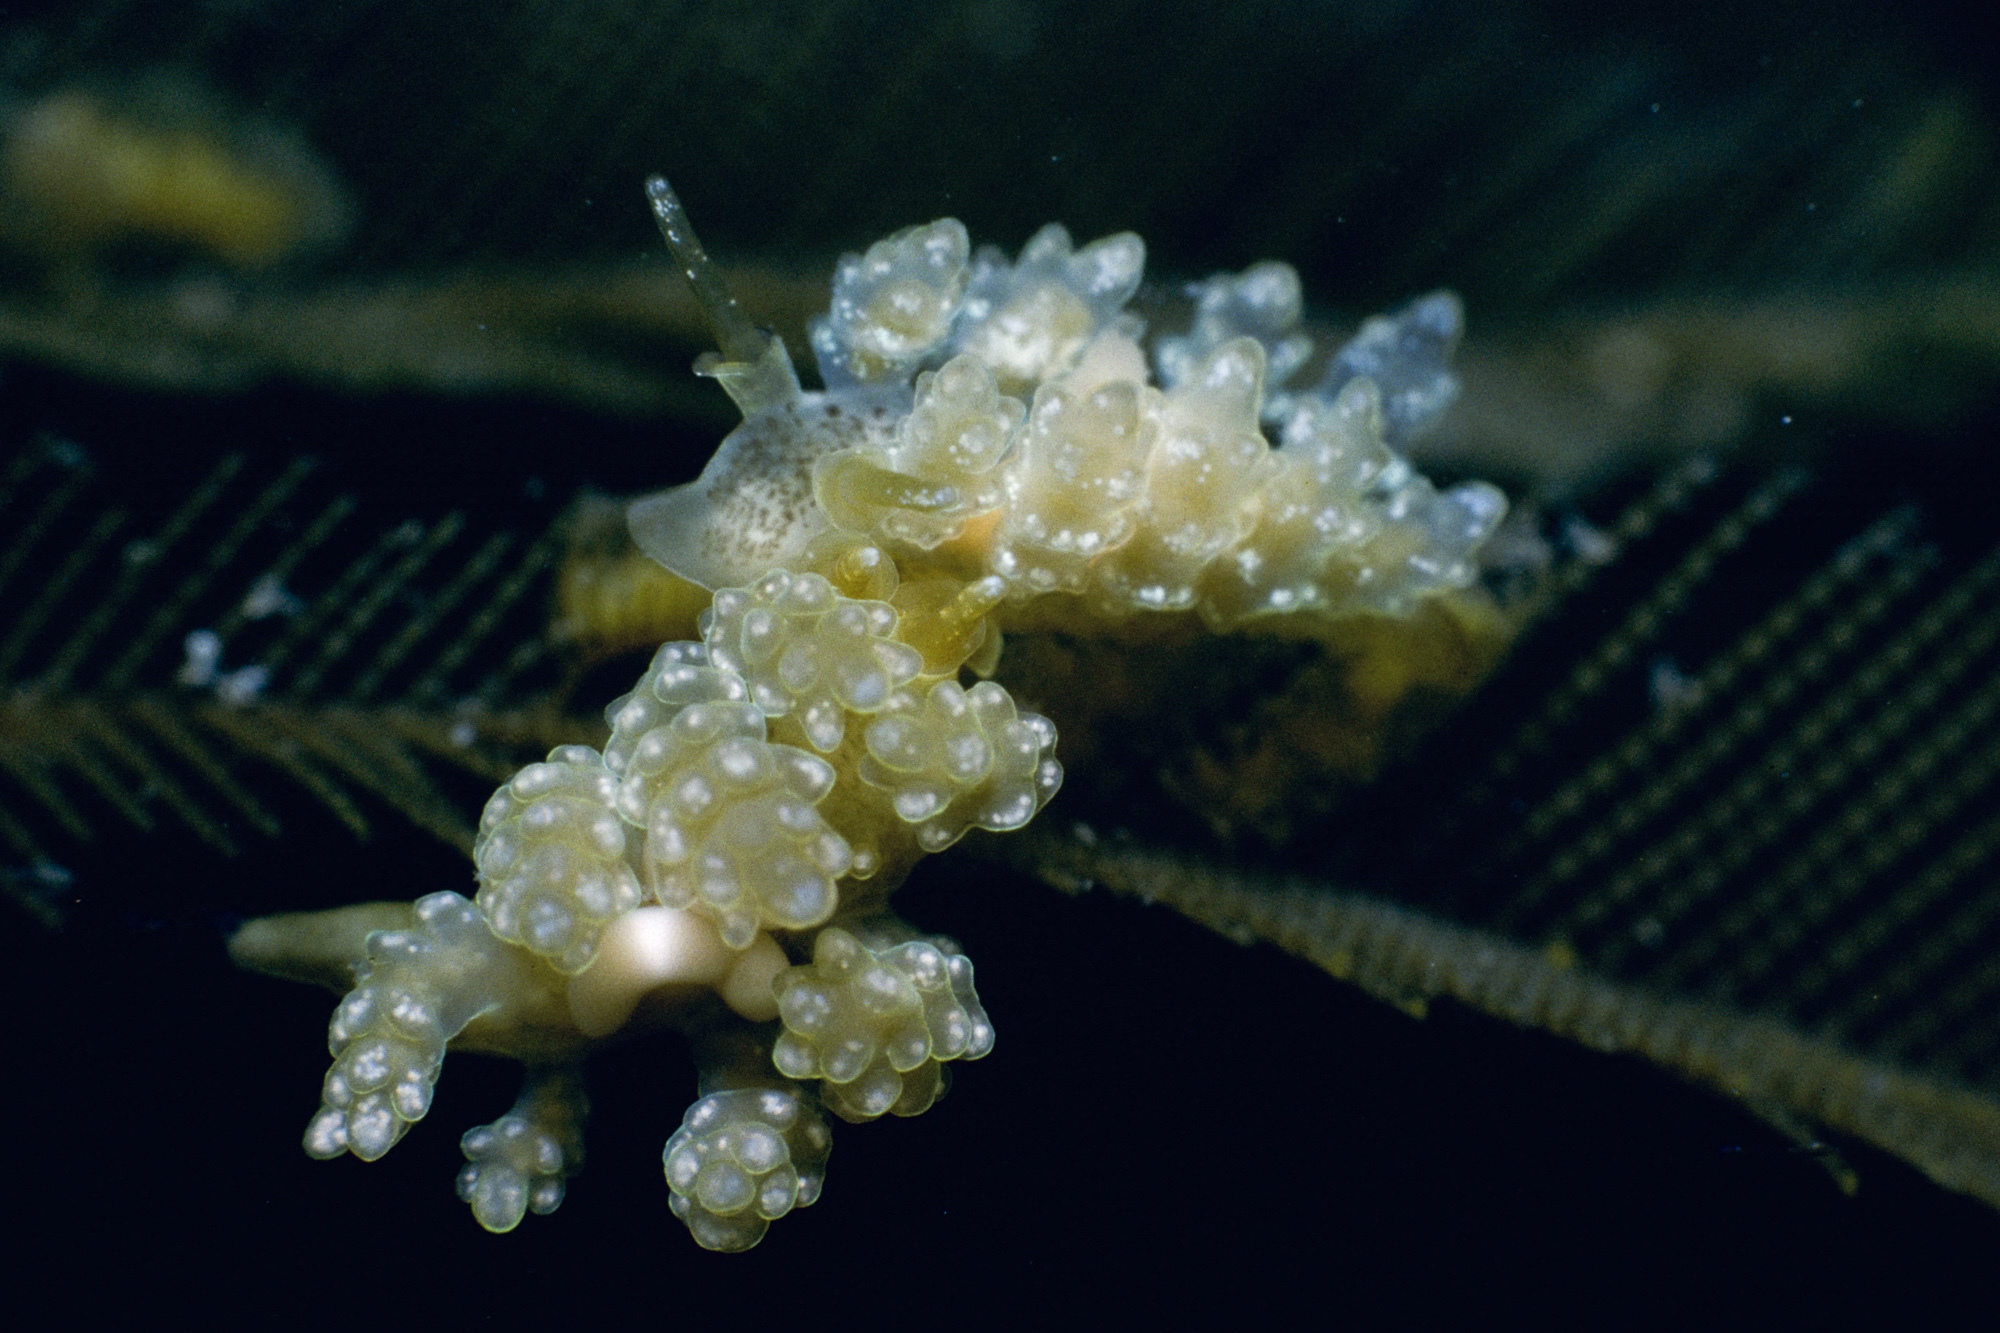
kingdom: Animalia
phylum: Mollusca
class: Gastropoda
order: Nudibranchia
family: Dotidae
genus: Doto
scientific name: Doto lemchei
